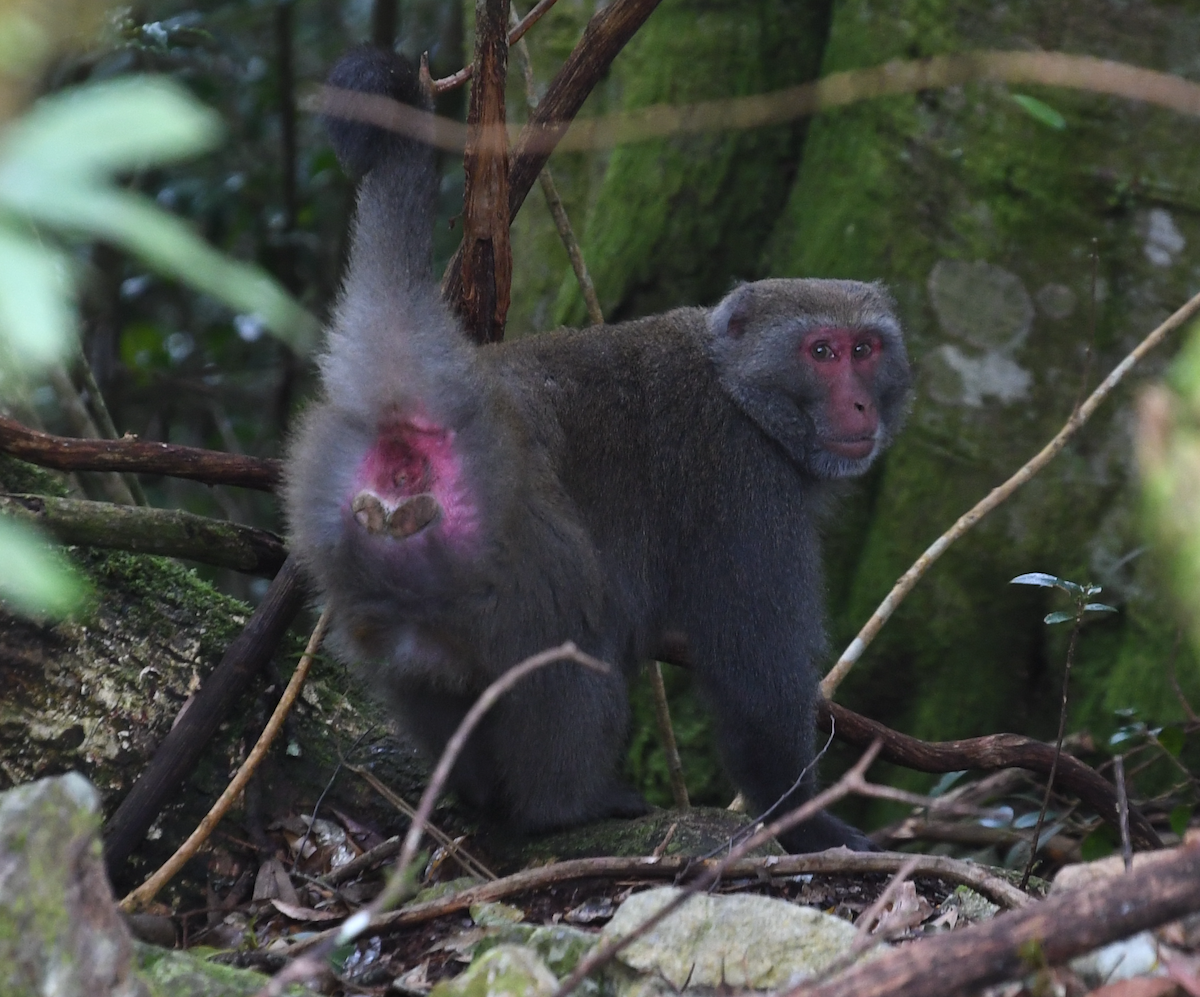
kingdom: Animalia
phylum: Chordata
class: Mammalia
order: Primates
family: Cercopithecidae
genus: Macaca
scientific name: Macaca cyclopis
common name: Formosan rock macaque
